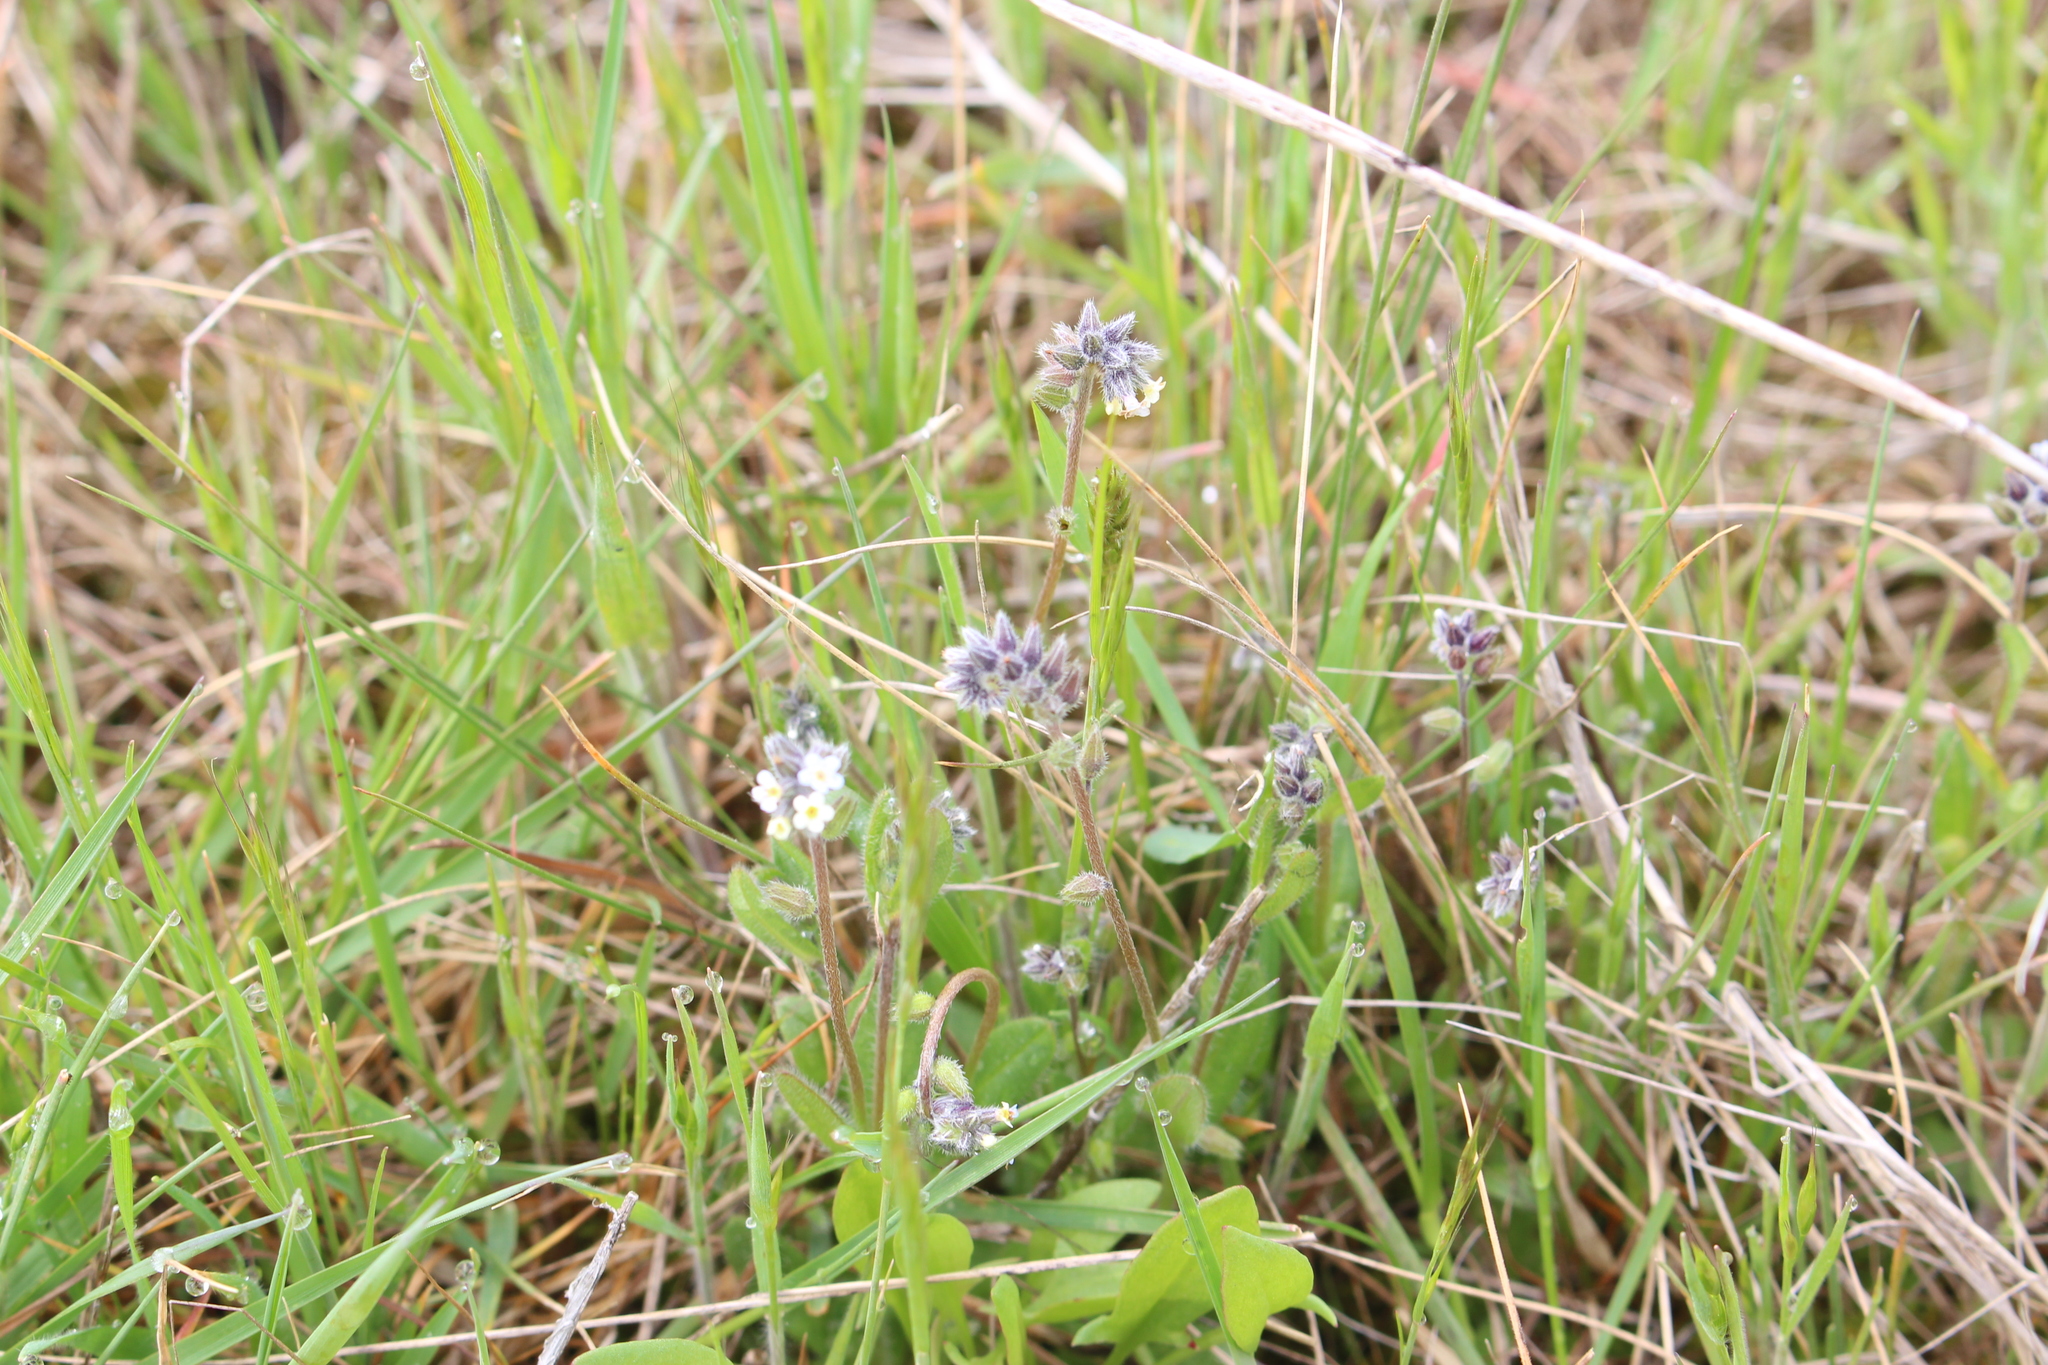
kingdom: Plantae
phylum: Tracheophyta
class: Magnoliopsida
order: Boraginales
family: Boraginaceae
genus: Myosotis
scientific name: Myosotis discolor
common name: Changing forget-me-not
